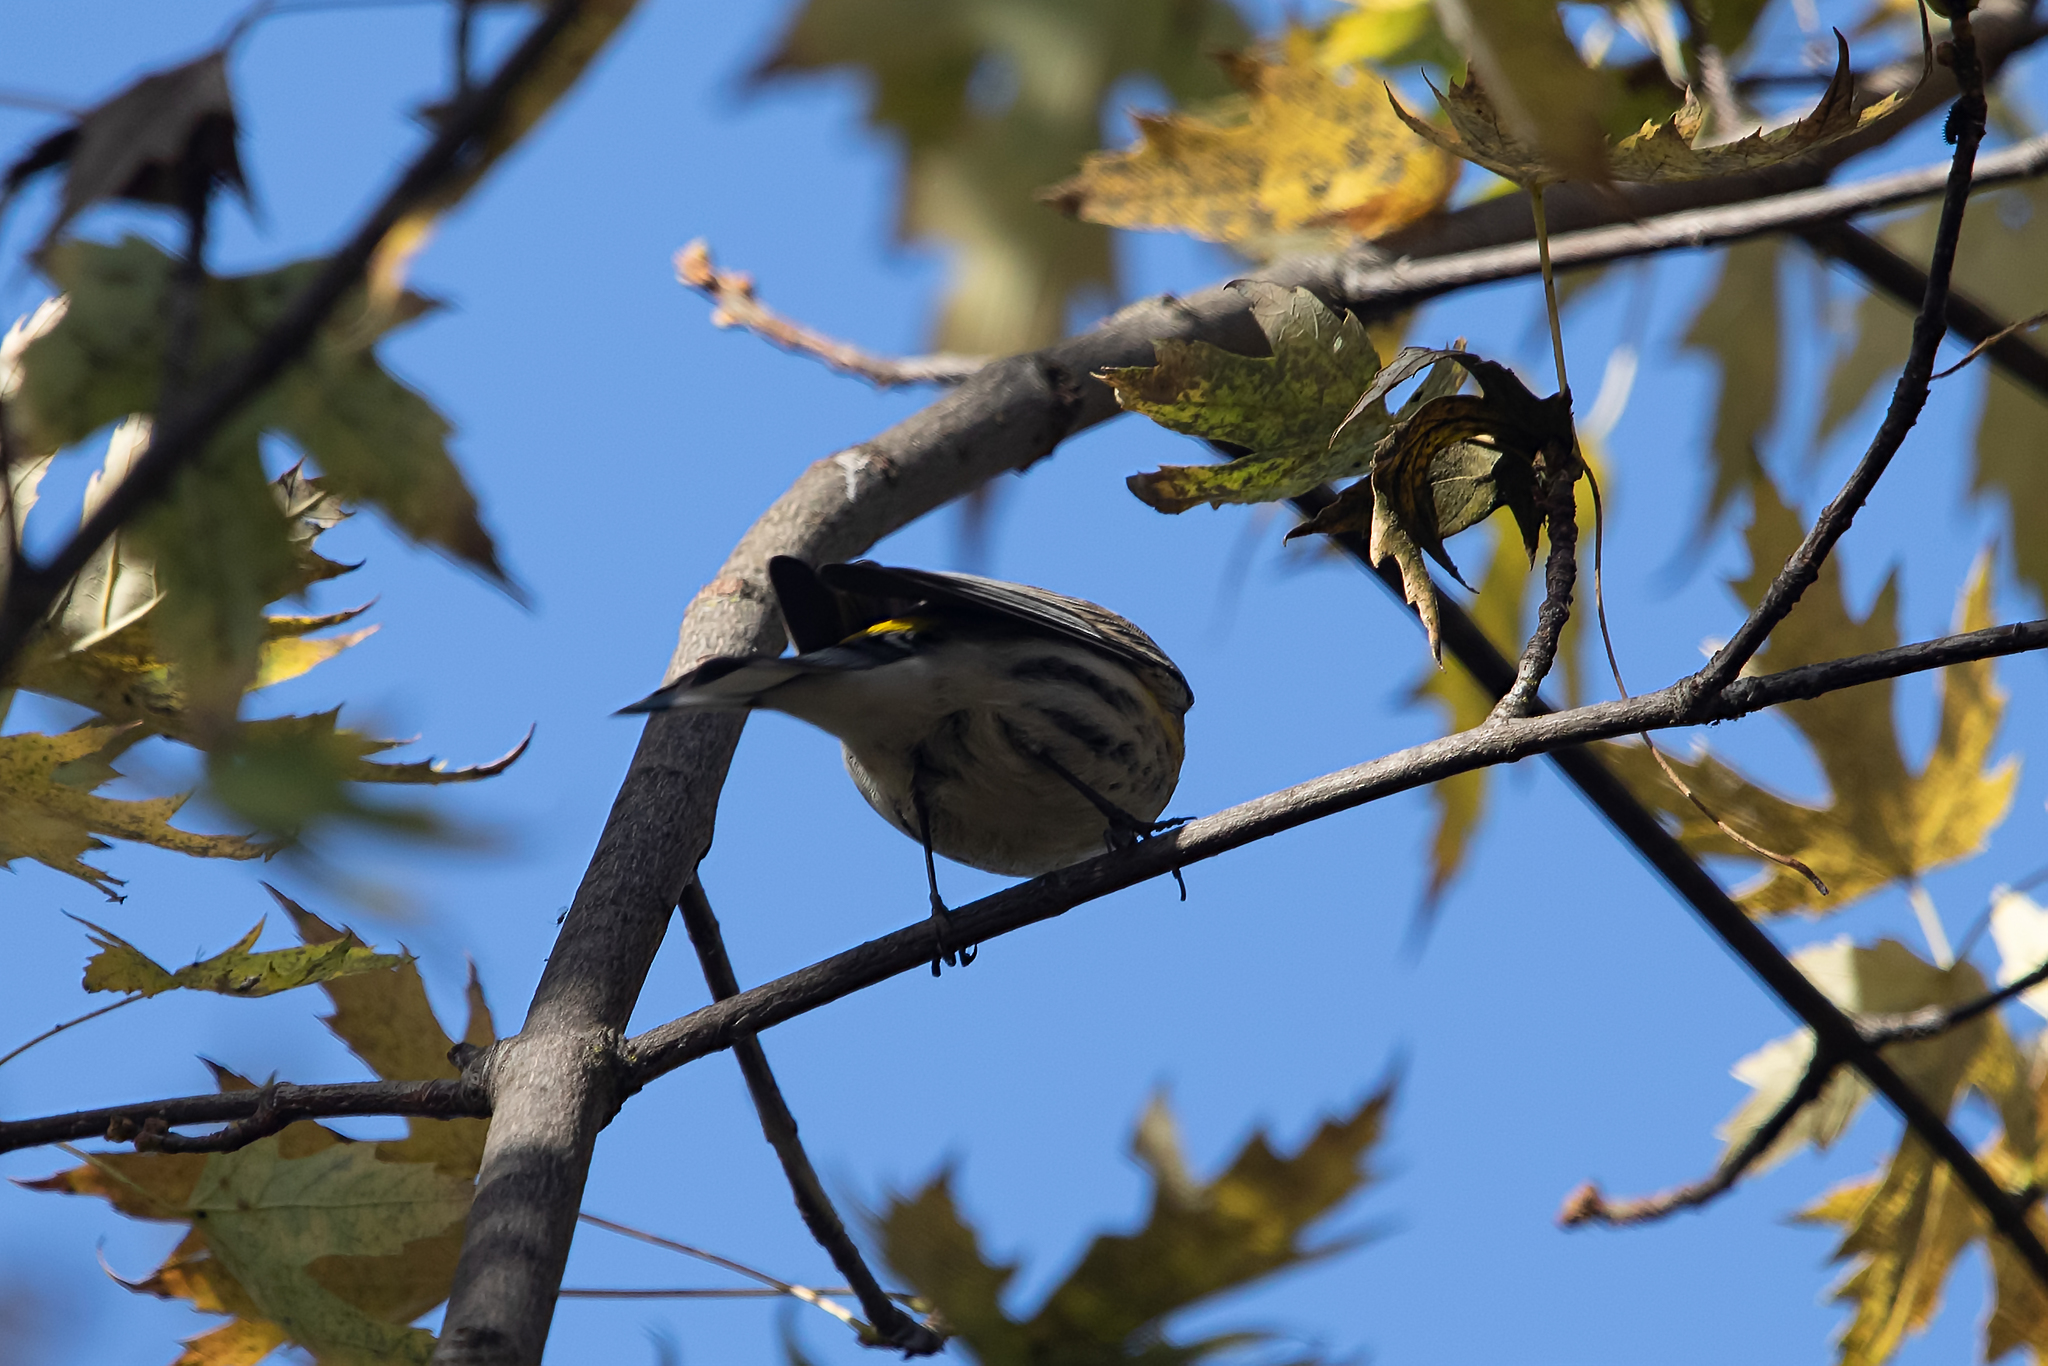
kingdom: Animalia
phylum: Chordata
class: Aves
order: Passeriformes
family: Parulidae
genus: Setophaga
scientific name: Setophaga auduboni
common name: Audubon's warbler
